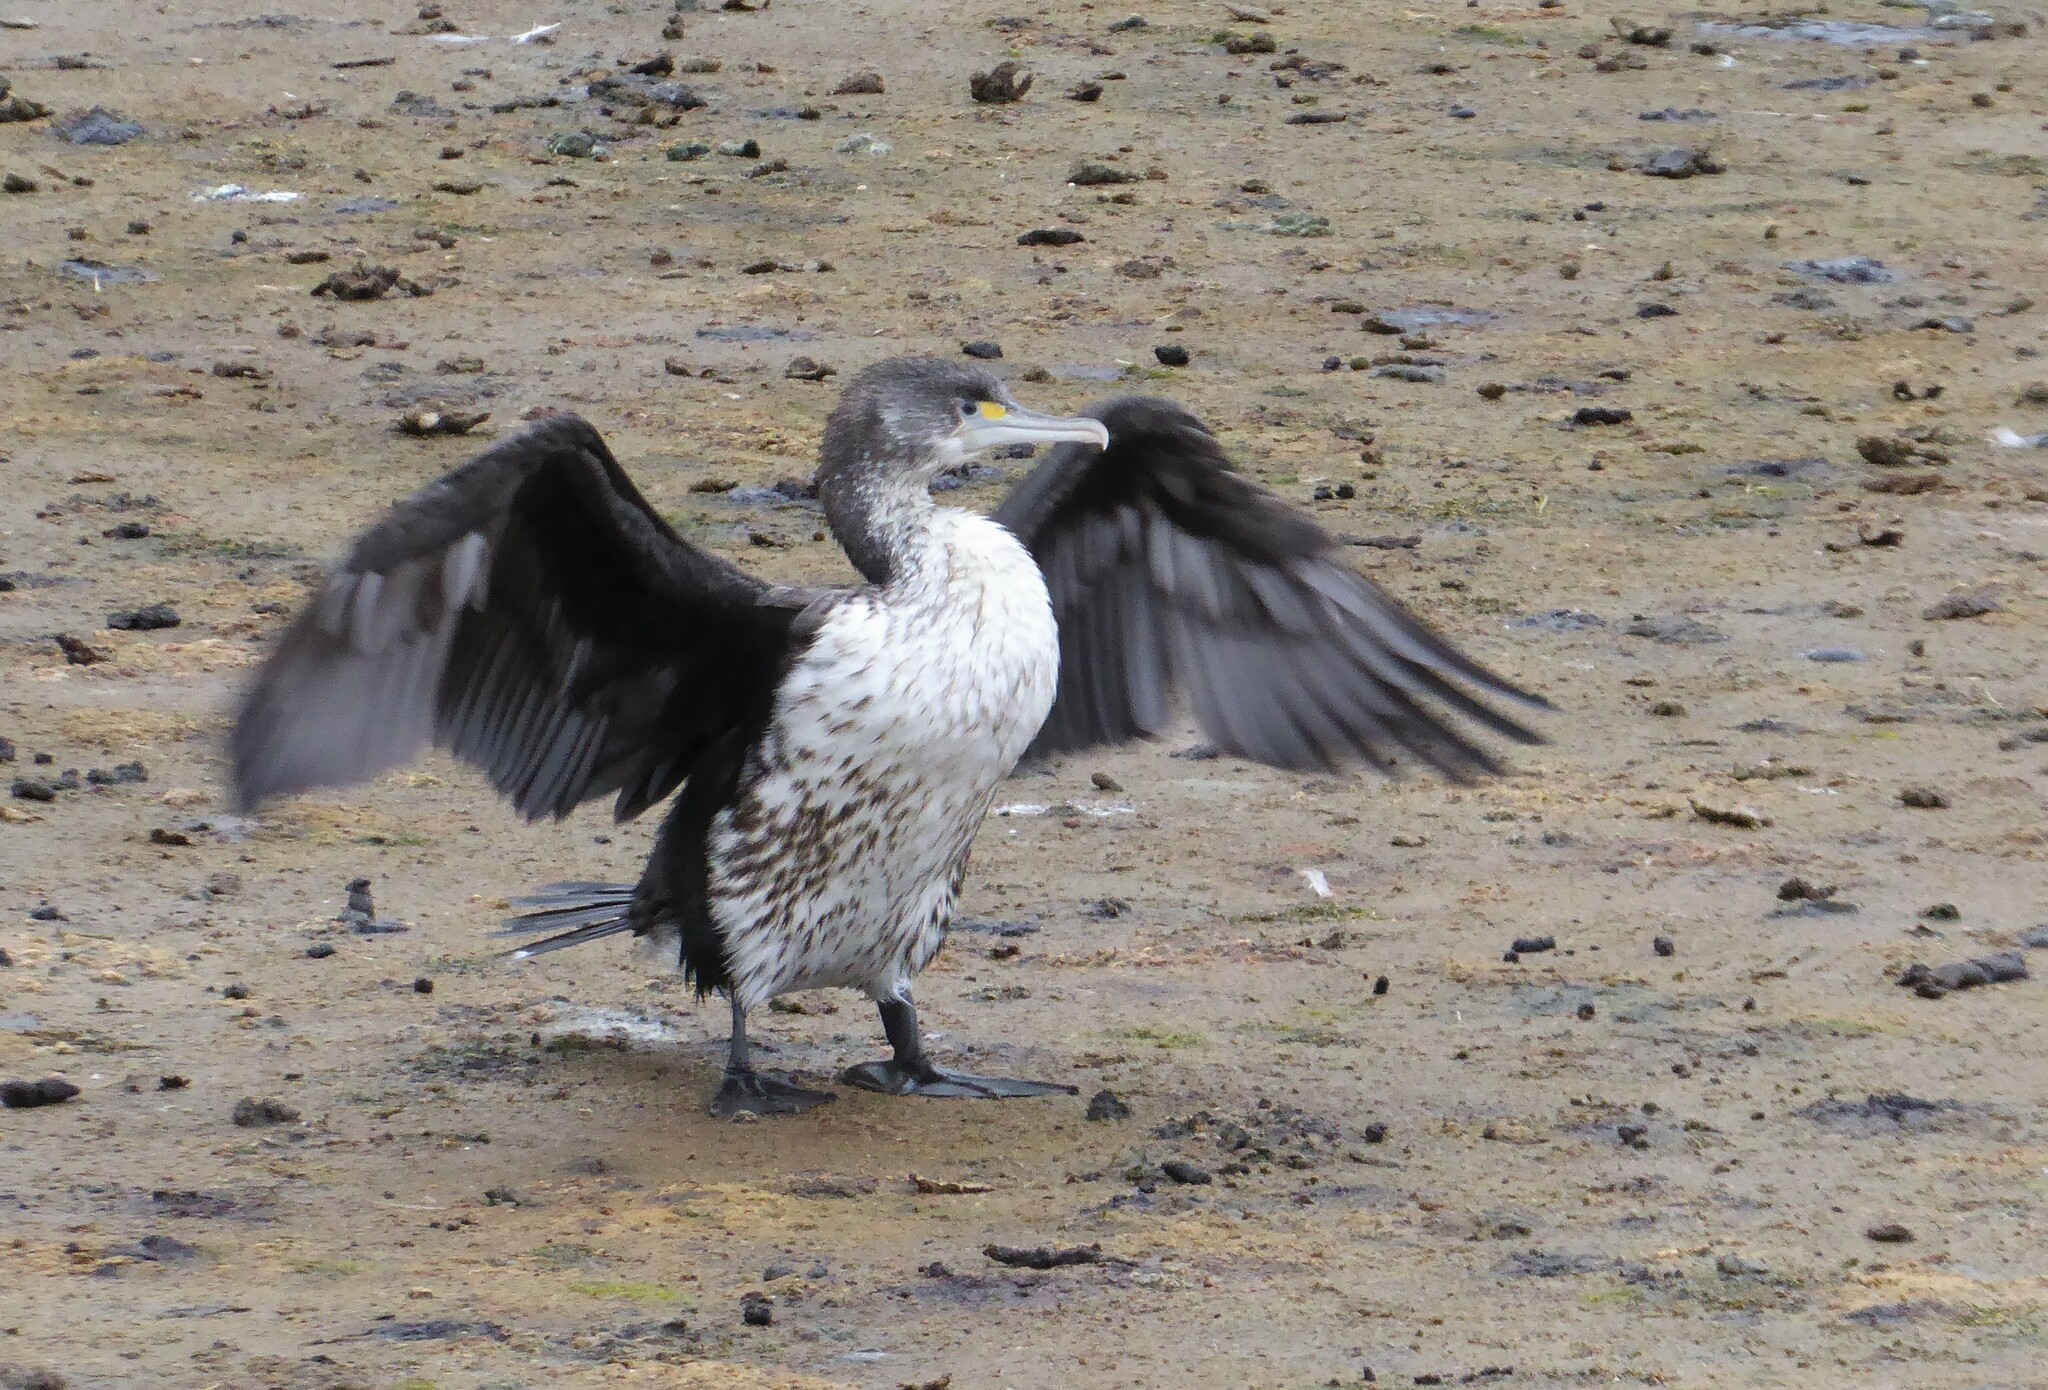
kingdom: Animalia
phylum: Chordata
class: Aves
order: Suliformes
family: Phalacrocoracidae
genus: Phalacrocorax
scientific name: Phalacrocorax varius
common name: Pied cormorant
